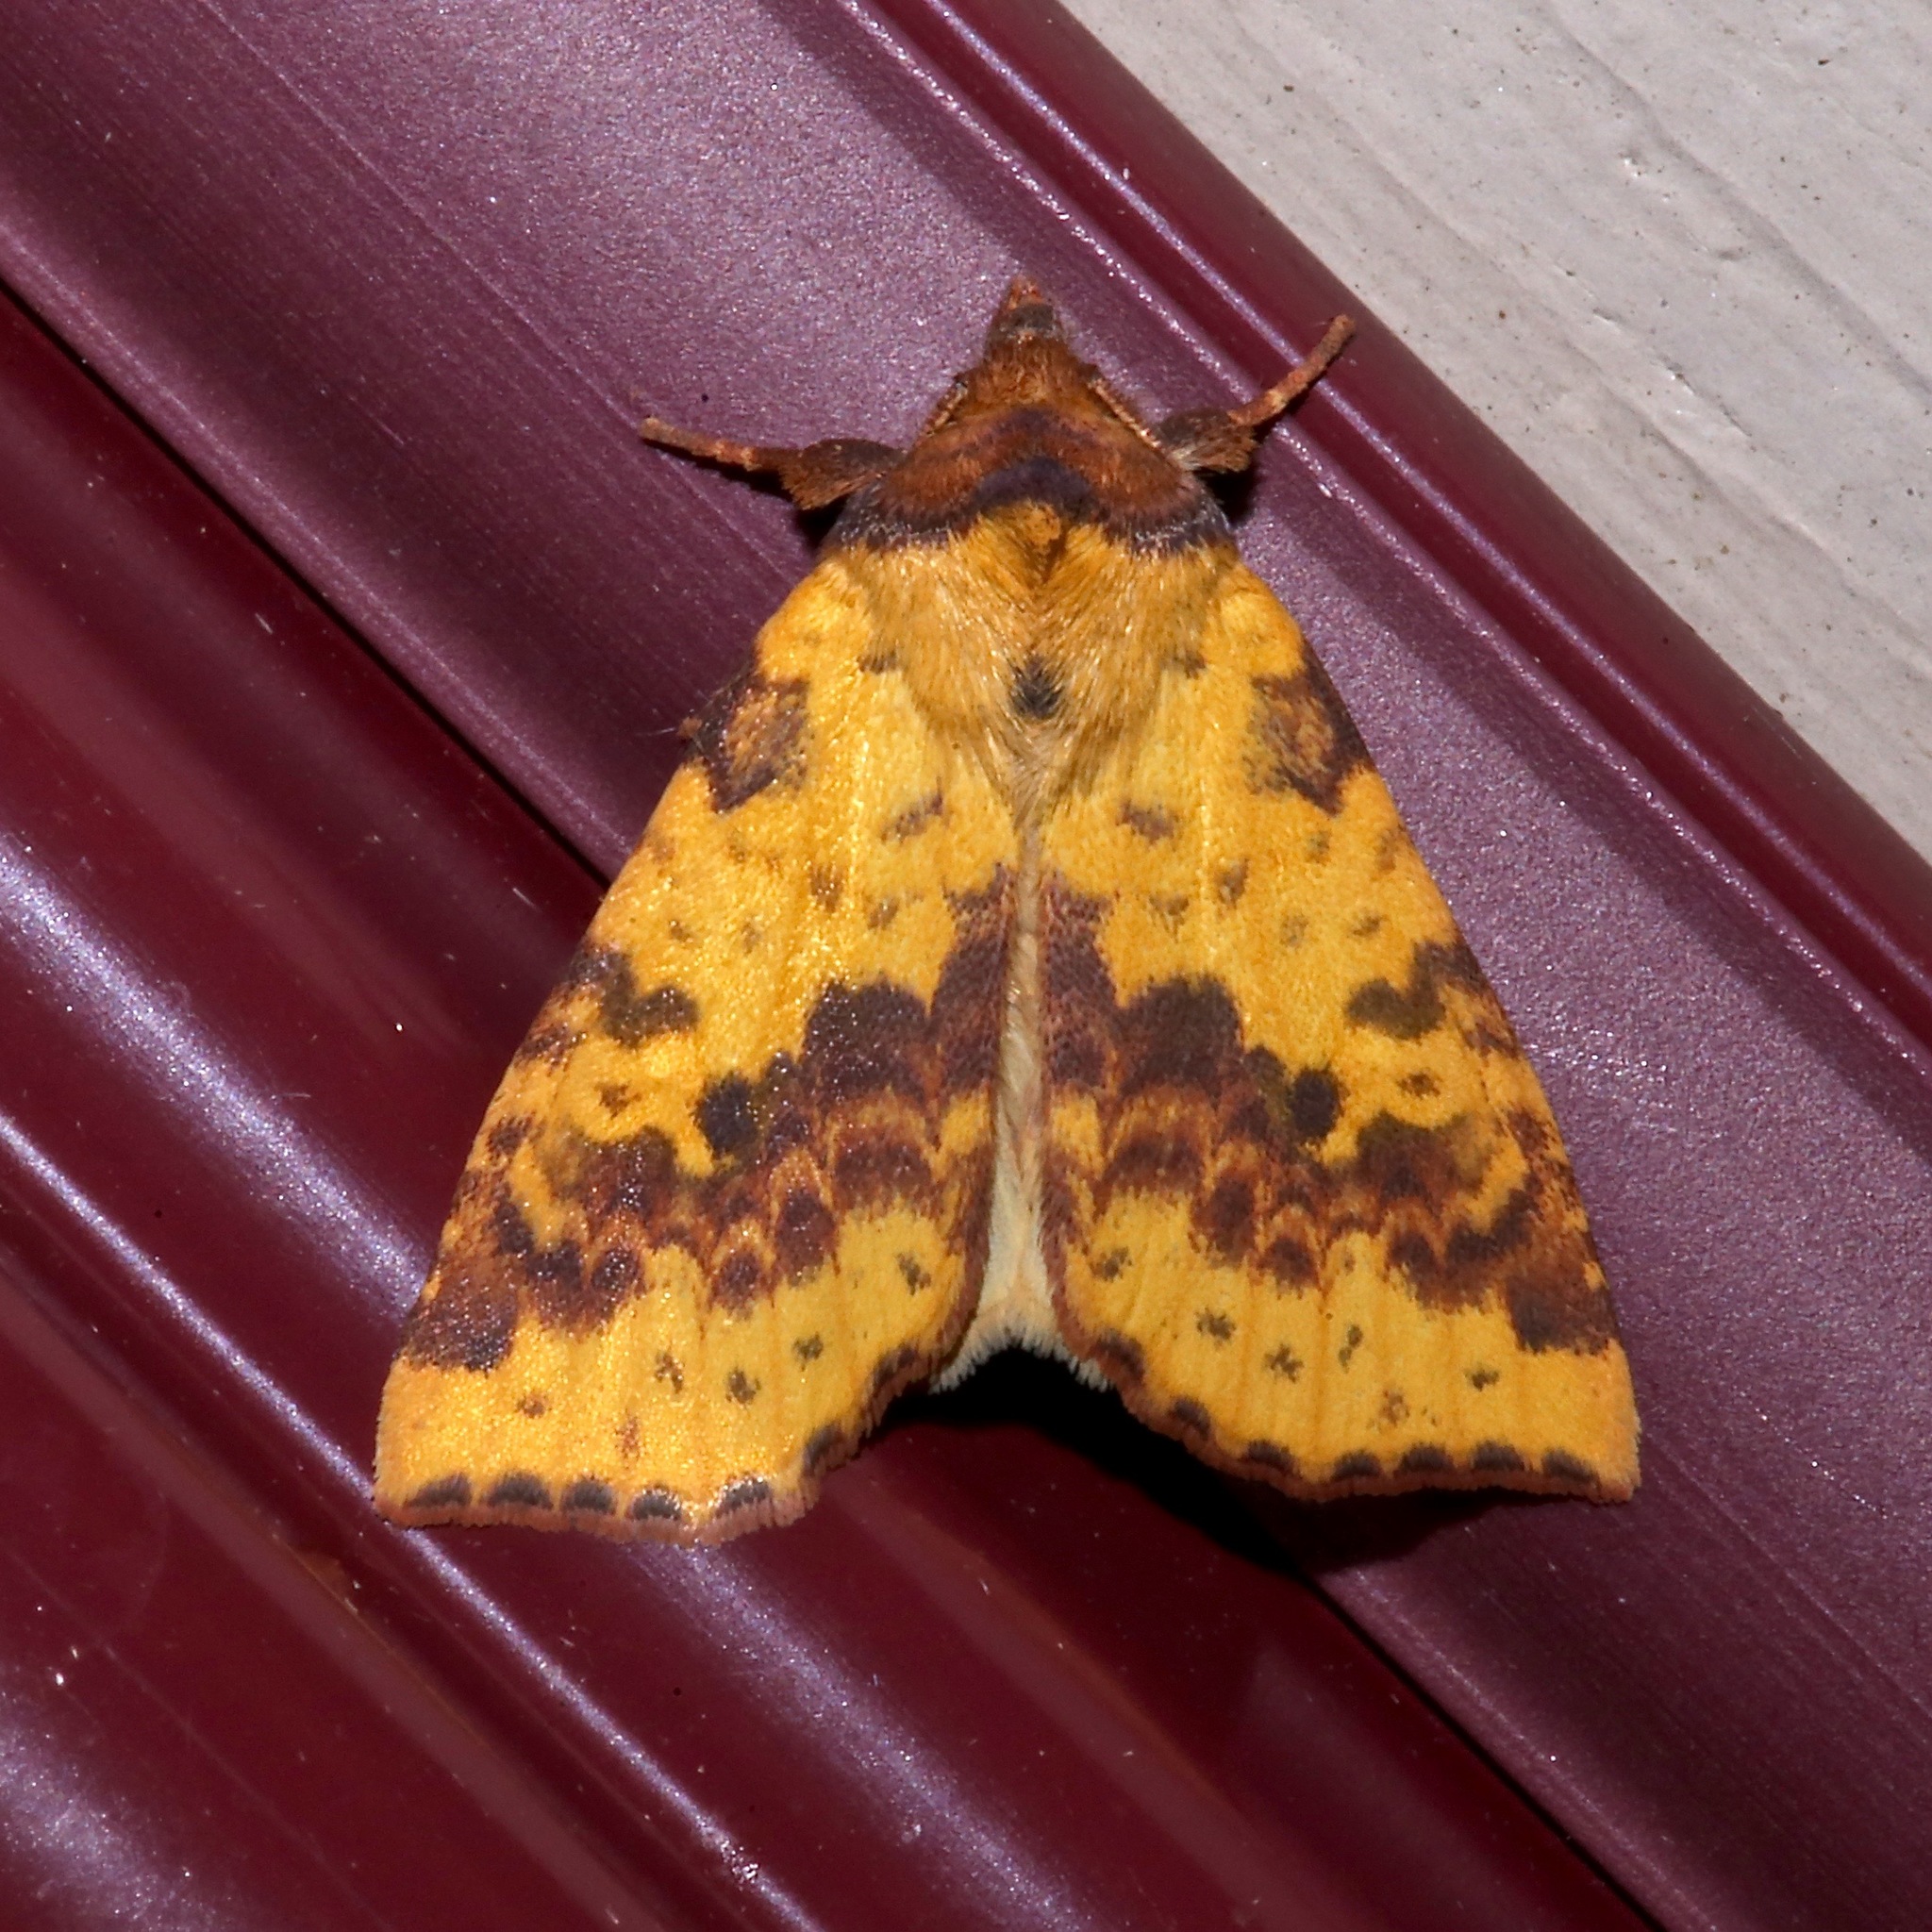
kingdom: Animalia
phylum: Arthropoda
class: Insecta
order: Lepidoptera
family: Noctuidae
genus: Xanthia
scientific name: Xanthia tatago
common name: Pink-banded sallow
